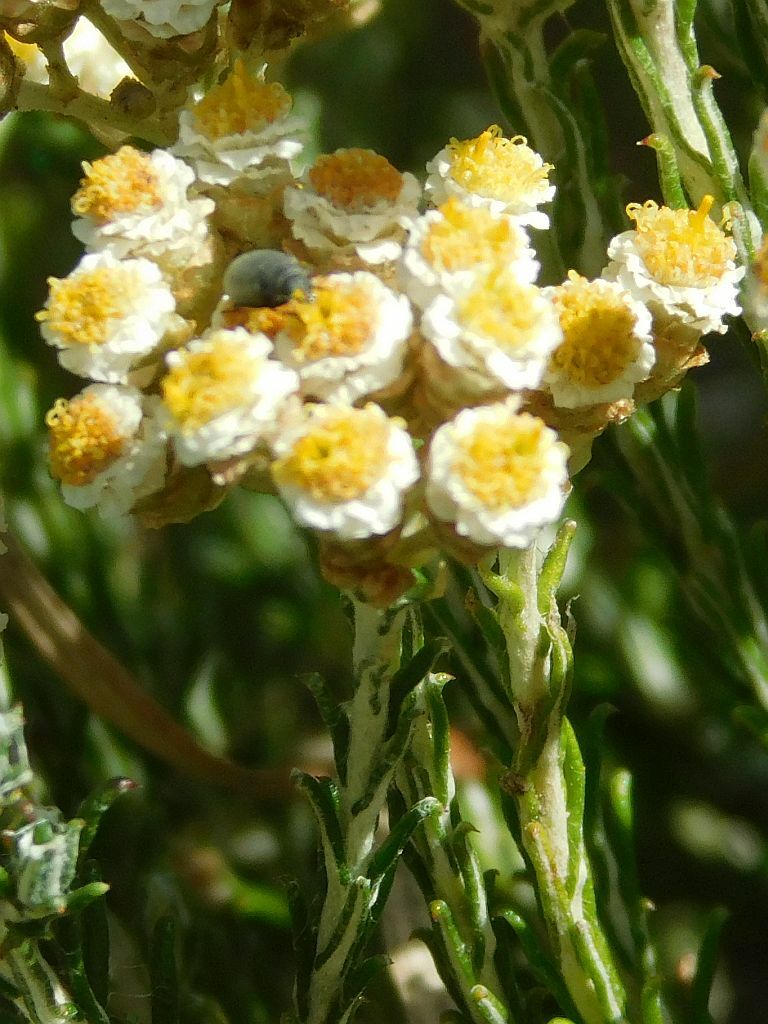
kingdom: Plantae
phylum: Tracheophyta
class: Magnoliopsida
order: Asterales
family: Asteraceae
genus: Helichrysum
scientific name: Helichrysum teretifolium
